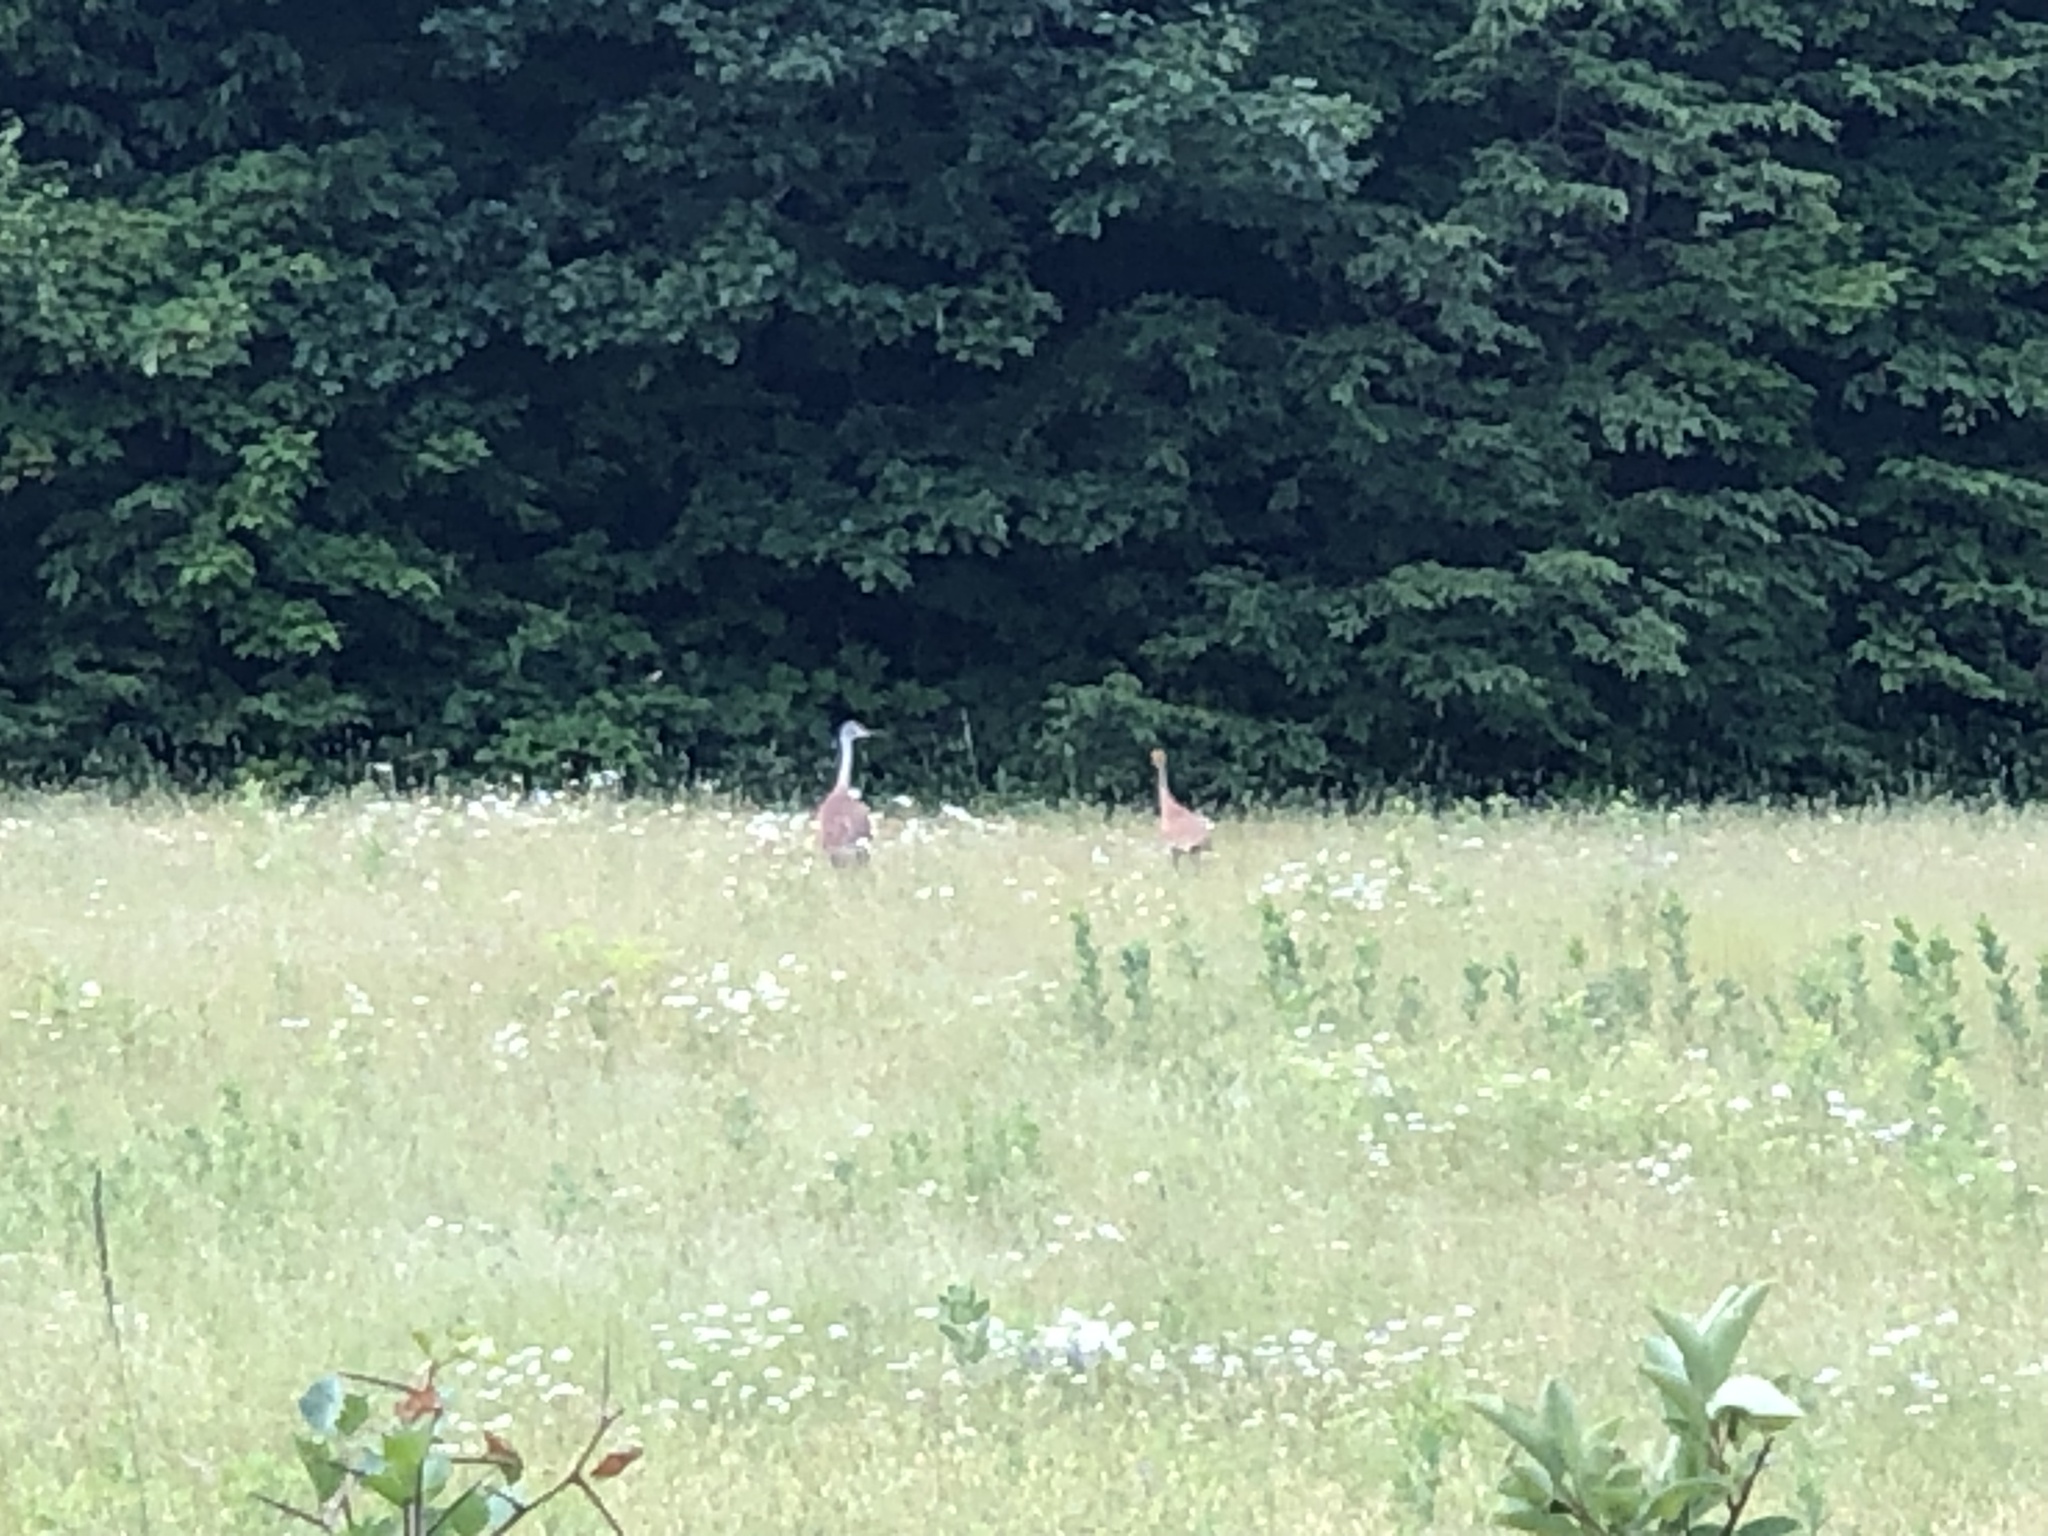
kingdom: Animalia
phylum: Chordata
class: Aves
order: Gruiformes
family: Gruidae
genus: Grus
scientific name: Grus canadensis
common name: Sandhill crane
